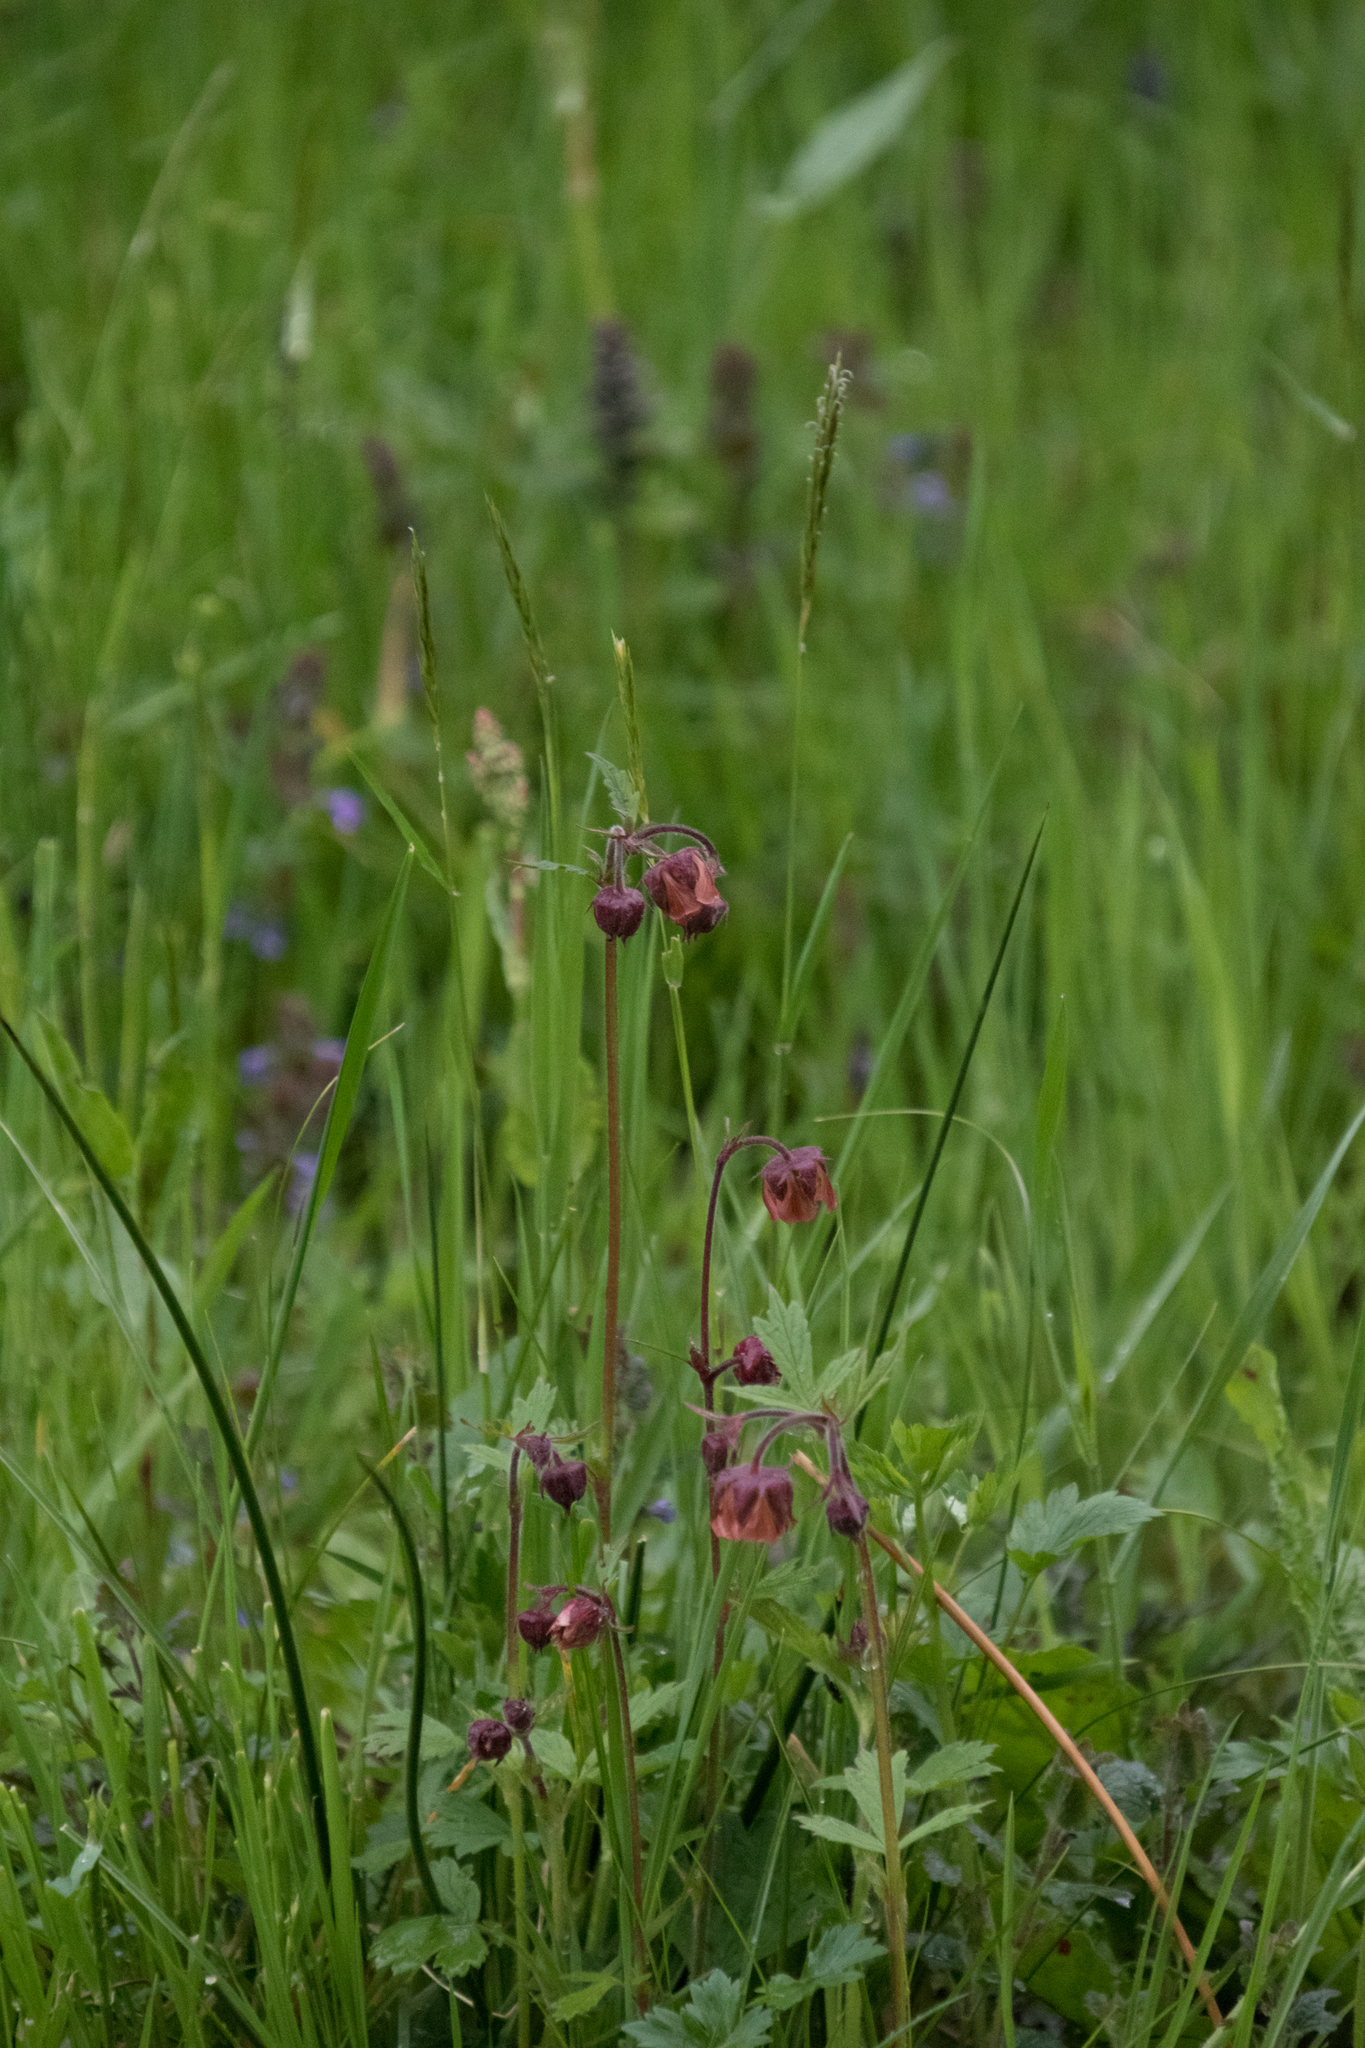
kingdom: Plantae
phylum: Tracheophyta
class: Magnoliopsida
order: Rosales
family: Rosaceae
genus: Geum
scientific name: Geum rivale
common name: Water avens
